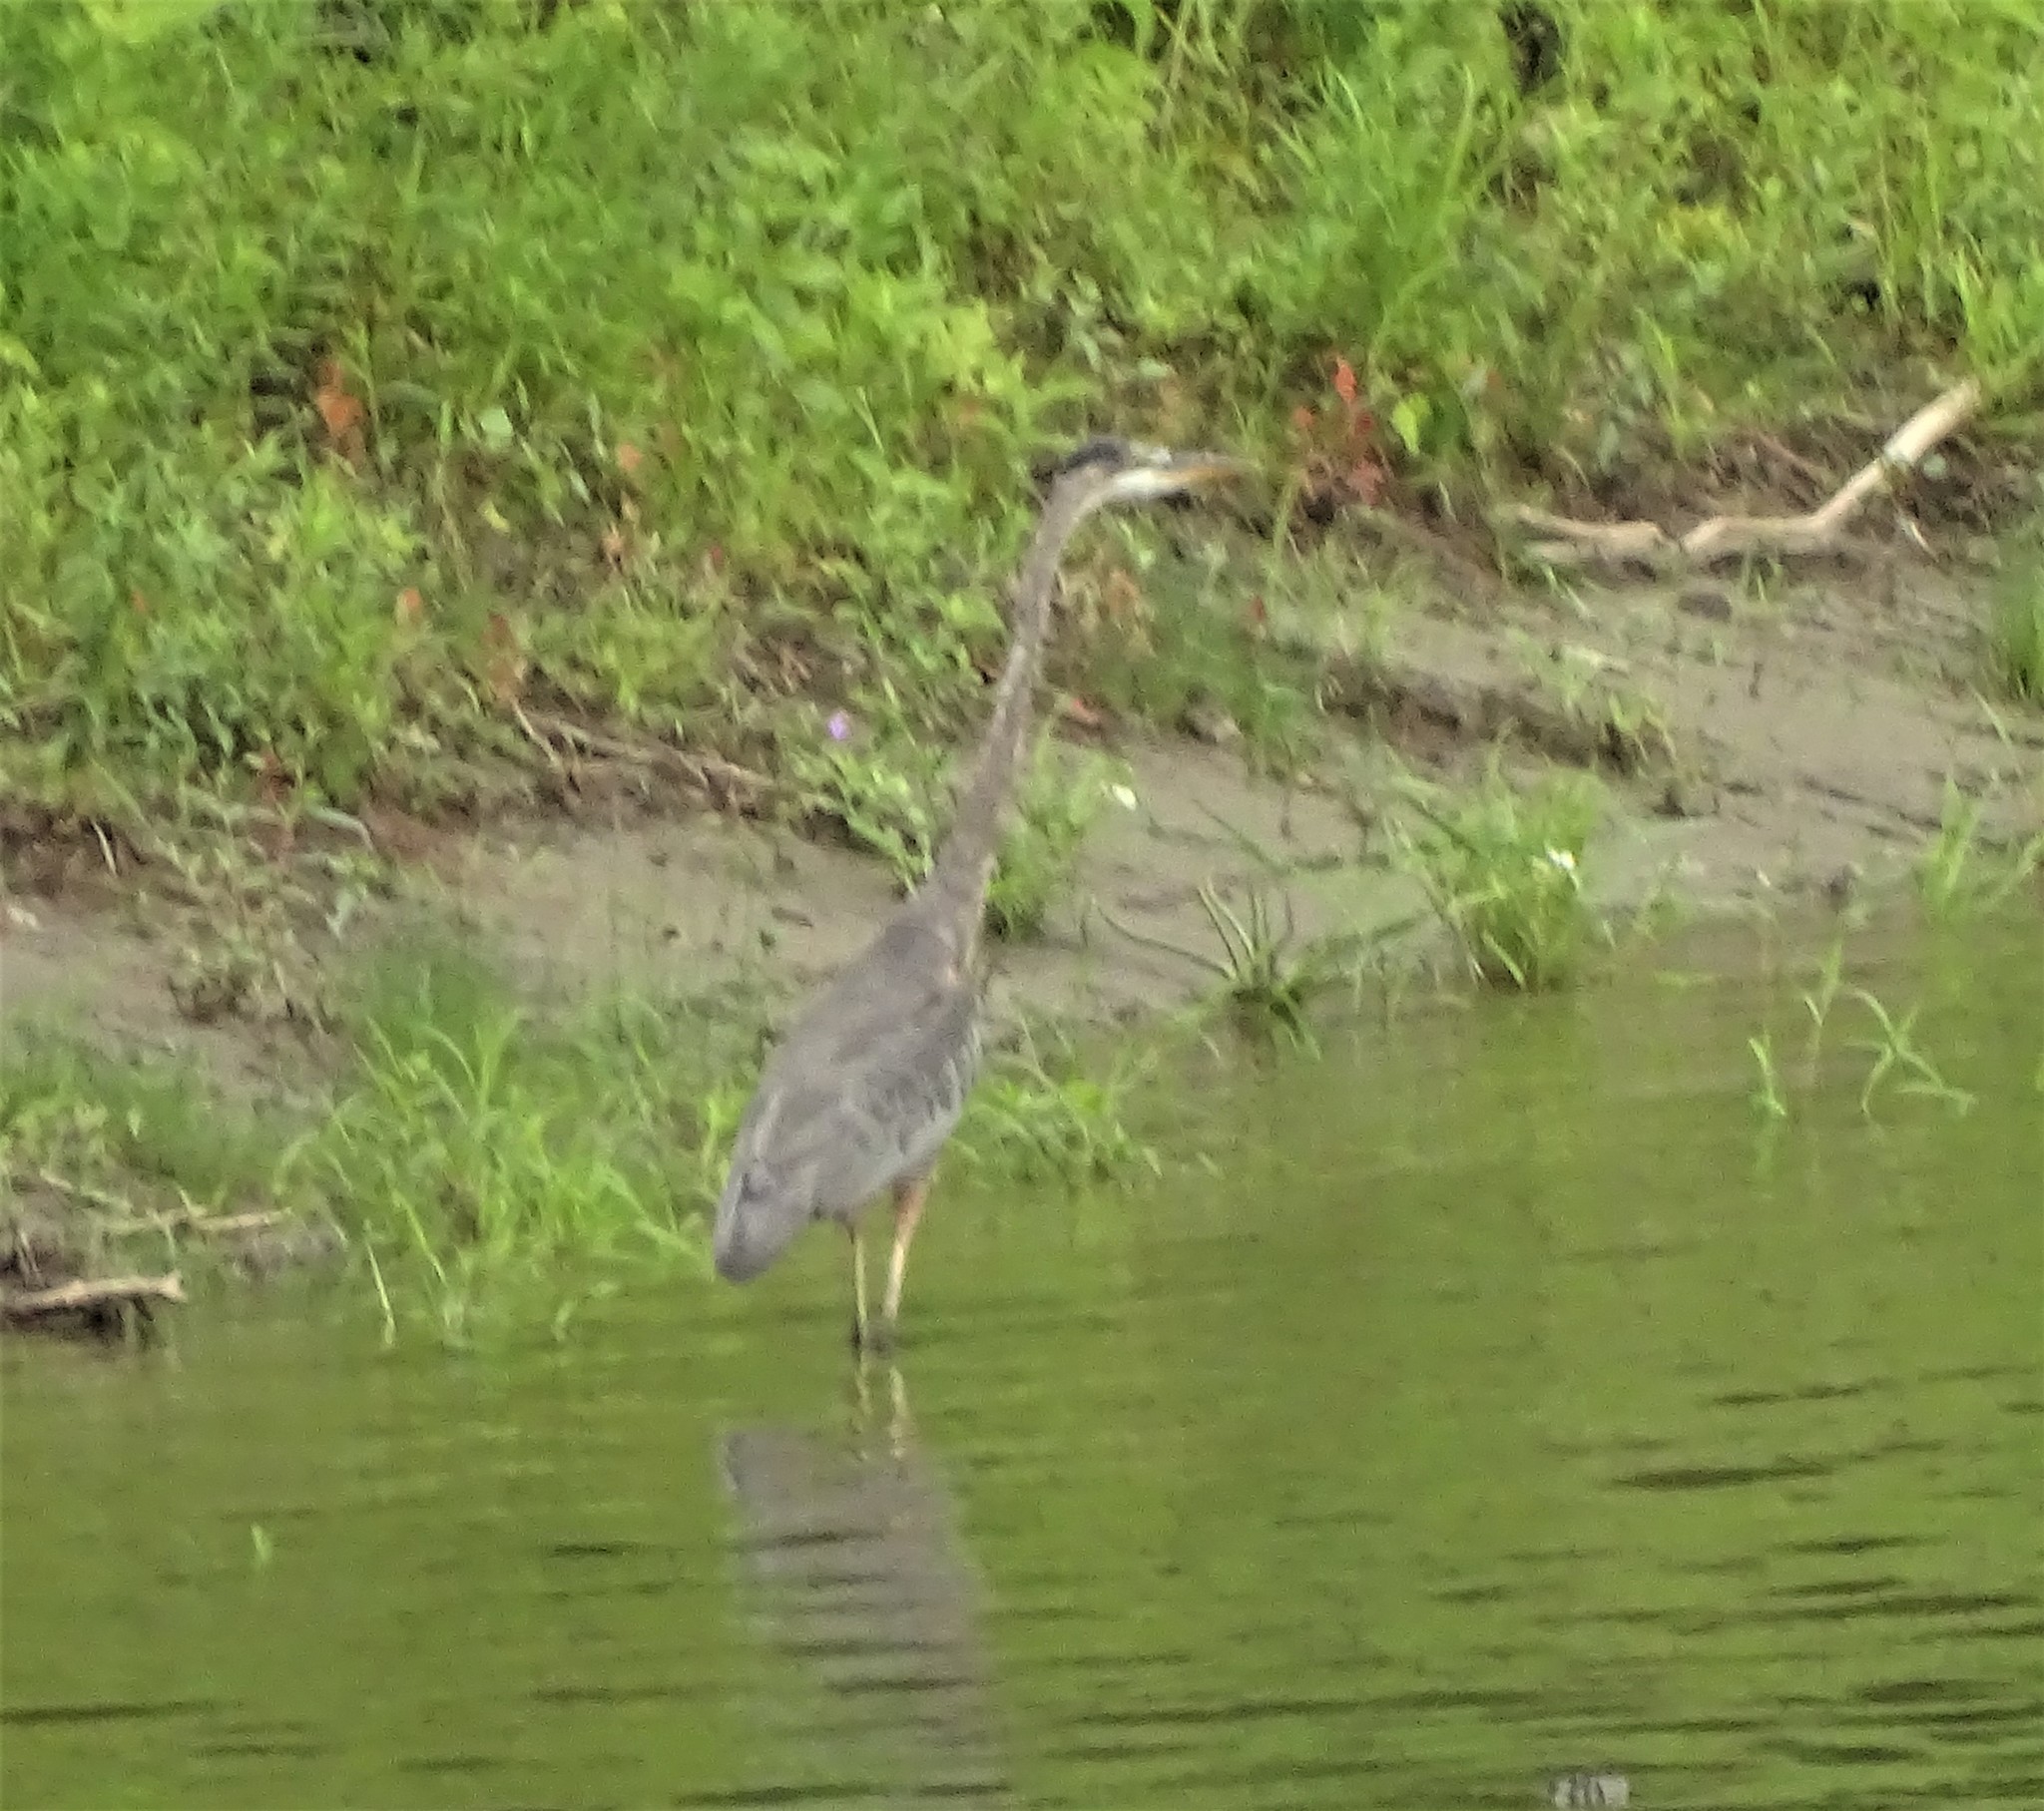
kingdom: Animalia
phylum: Chordata
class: Aves
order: Pelecaniformes
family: Ardeidae
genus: Ardea
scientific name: Ardea herodias
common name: Great blue heron
